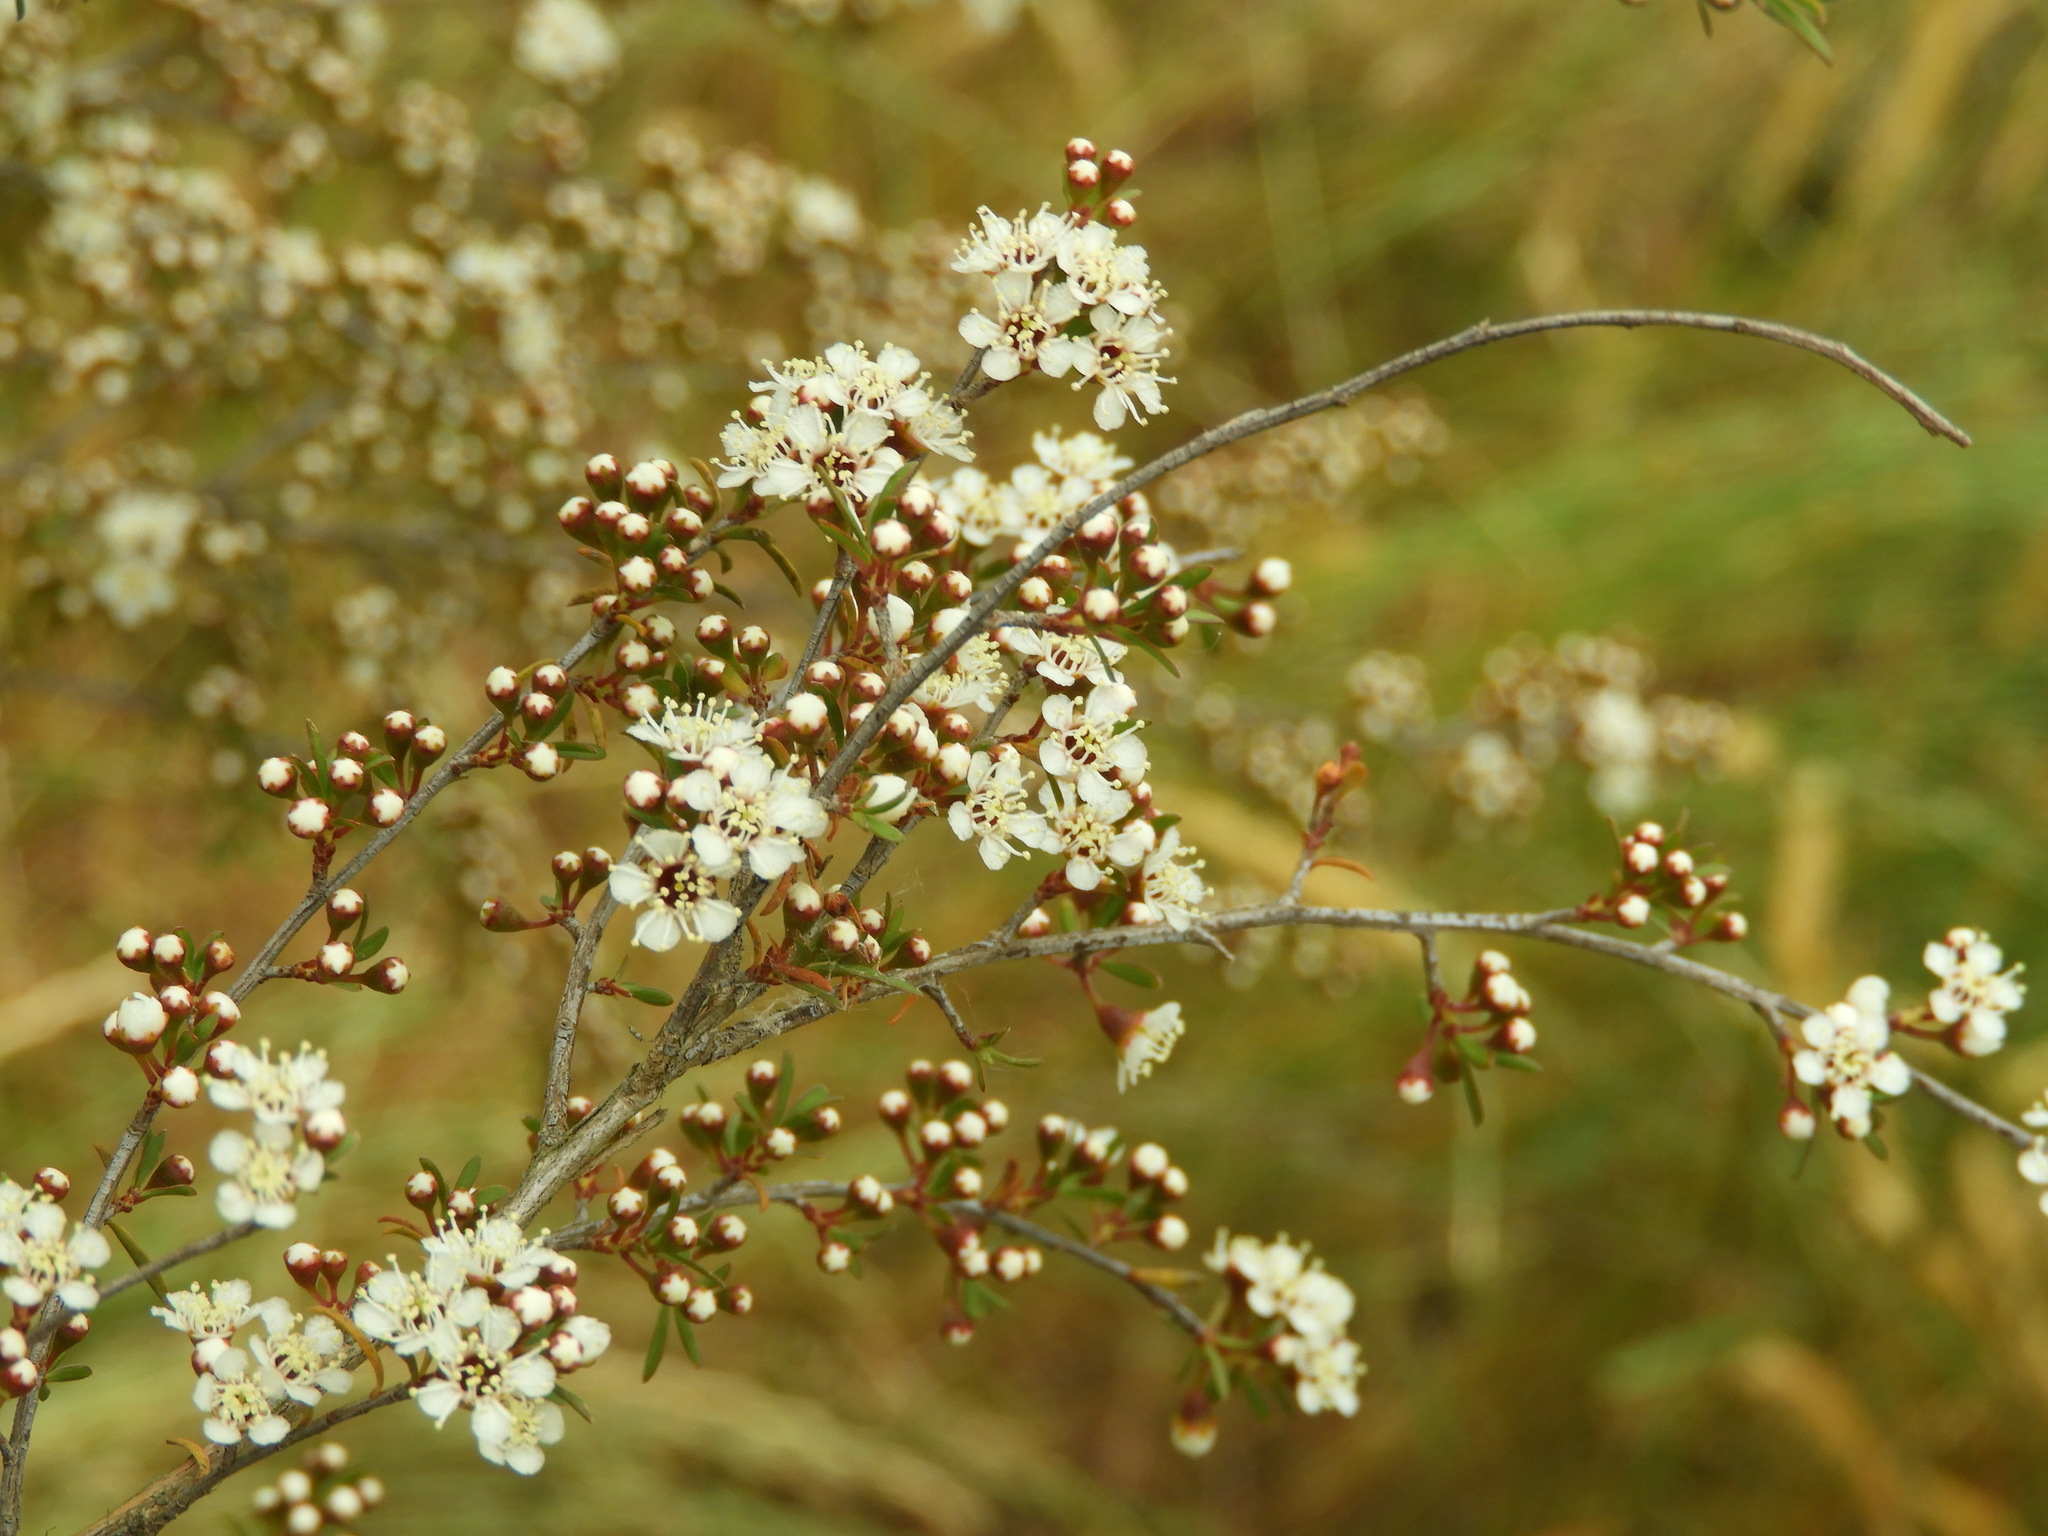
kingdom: Plantae
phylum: Tracheophyta
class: Magnoliopsida
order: Myrtales
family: Myrtaceae
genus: Kunzea
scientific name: Kunzea ericoides
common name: Burgan
